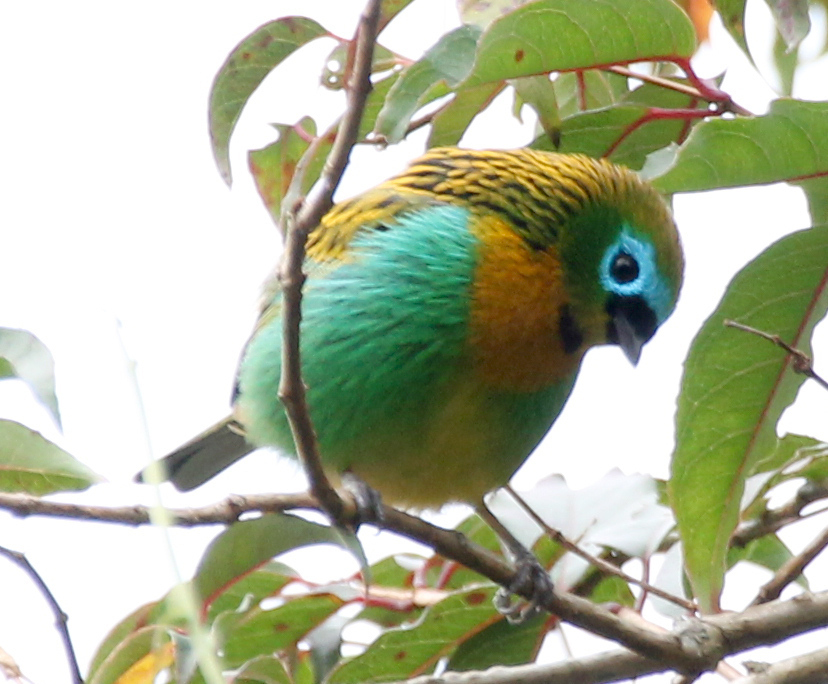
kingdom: Animalia
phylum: Chordata
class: Aves
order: Passeriformes
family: Thraupidae
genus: Tangara
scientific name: Tangara desmaresti
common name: Brassy-breasted tanager
